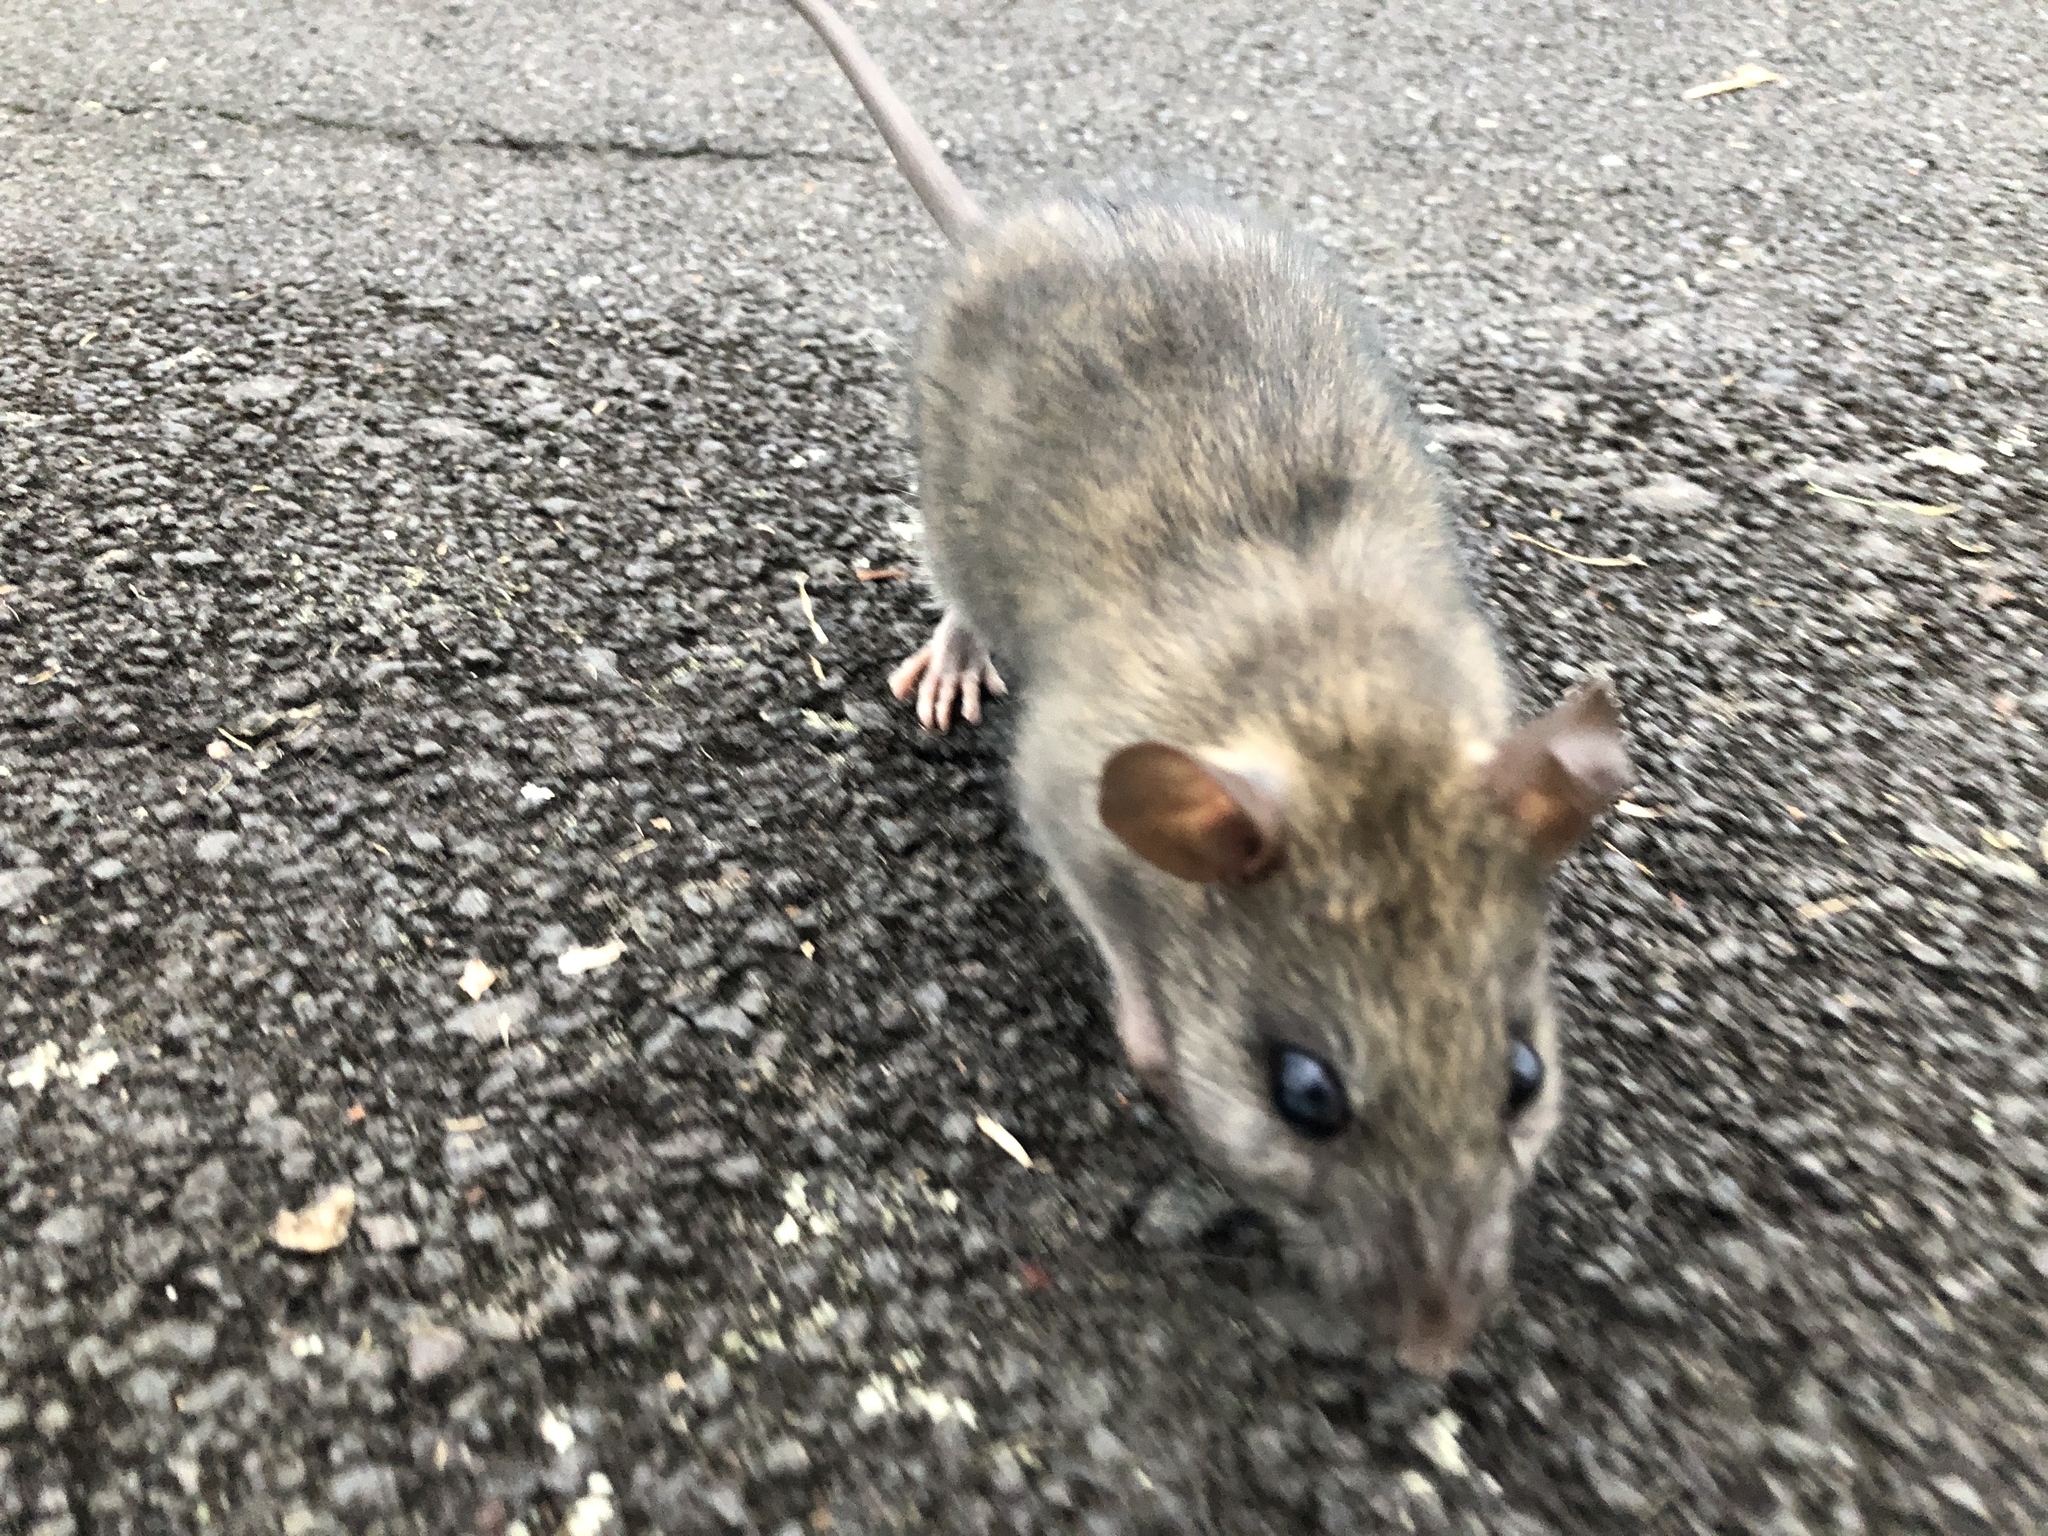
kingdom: Animalia
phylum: Chordata
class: Mammalia
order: Rodentia
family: Muridae
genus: Rattus
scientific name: Rattus rattus
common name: Black rat
